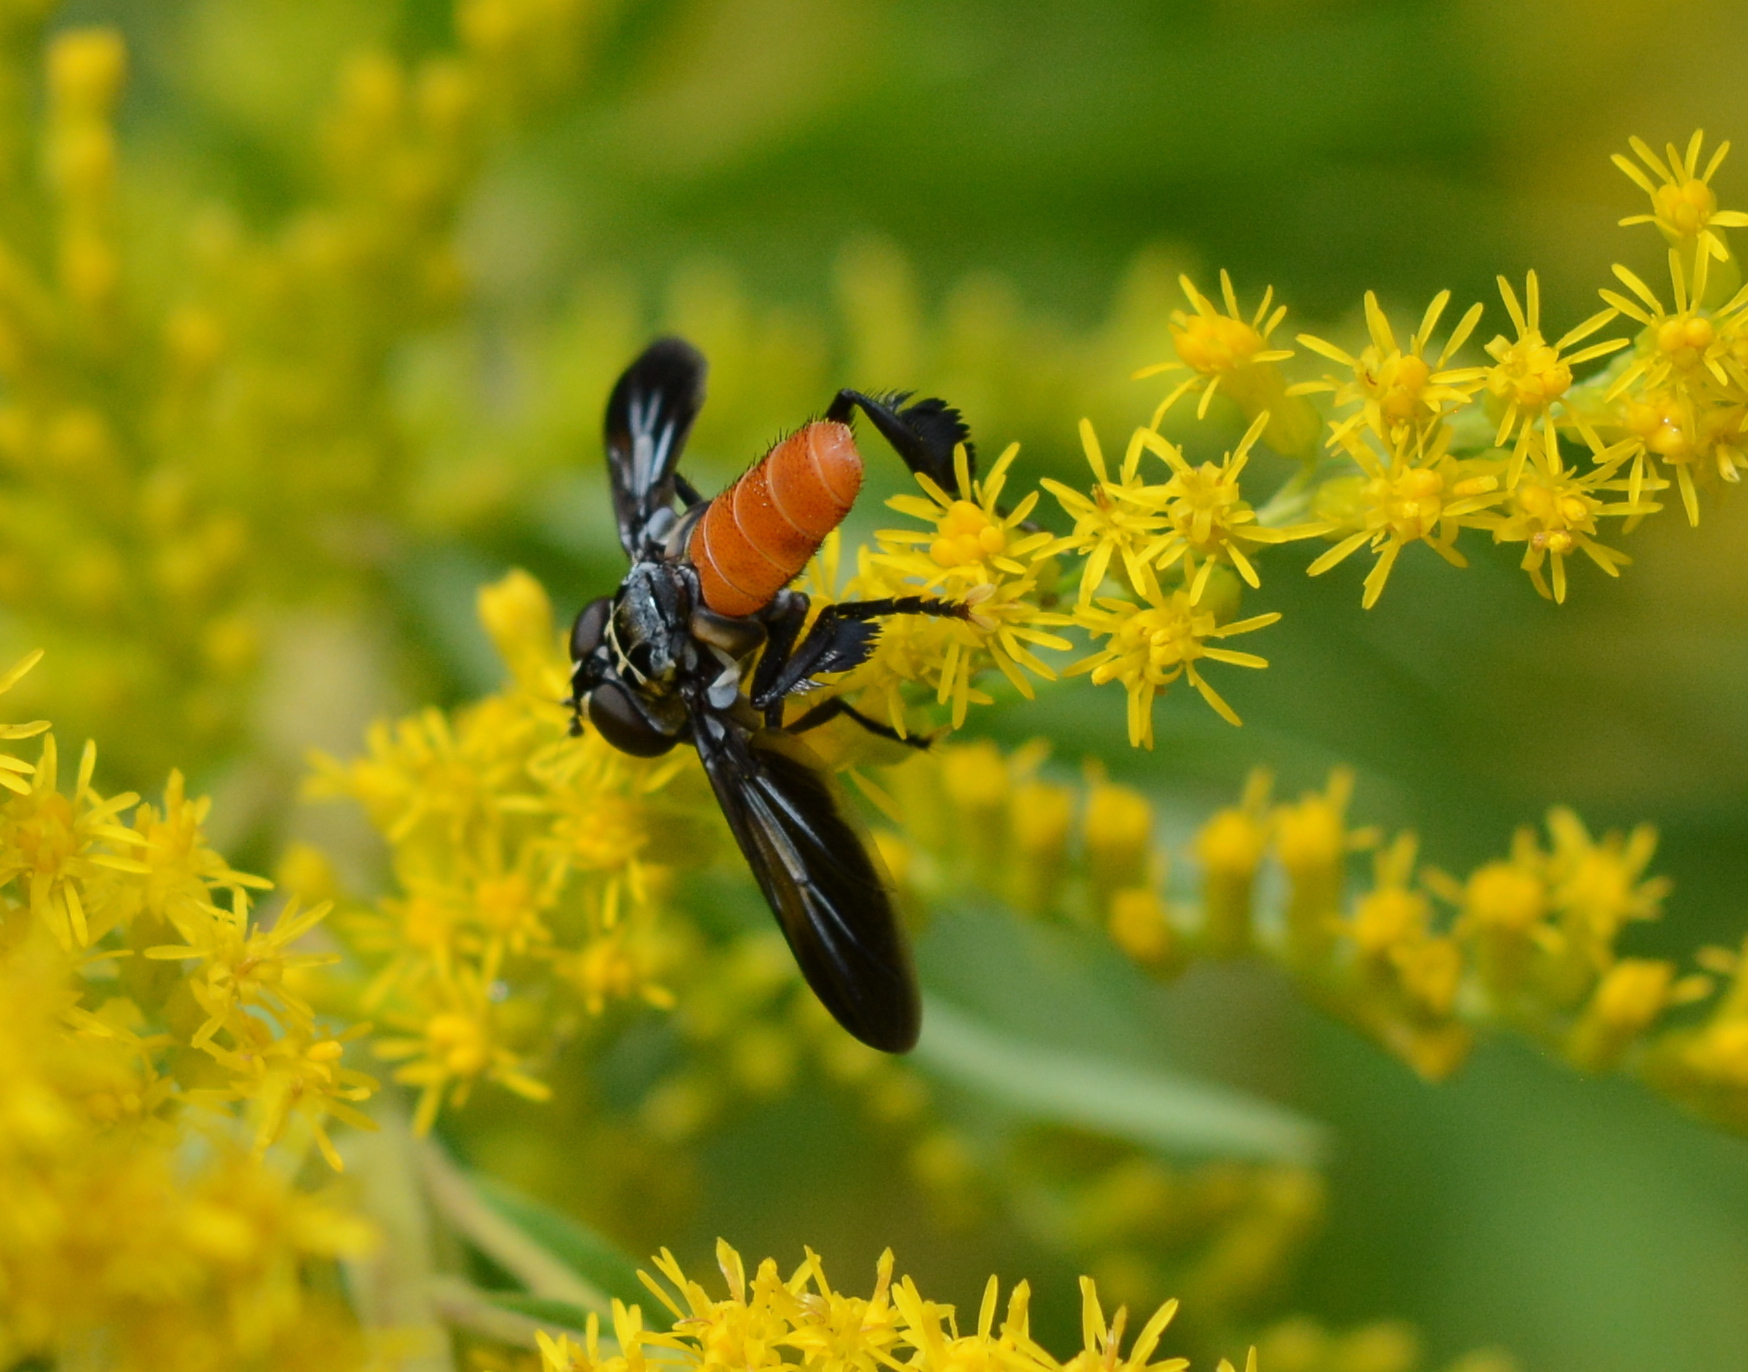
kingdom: Animalia
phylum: Arthropoda
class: Insecta
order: Diptera
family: Tachinidae
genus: Trichopoda
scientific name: Trichopoda pennipes
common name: Tachinid fly
